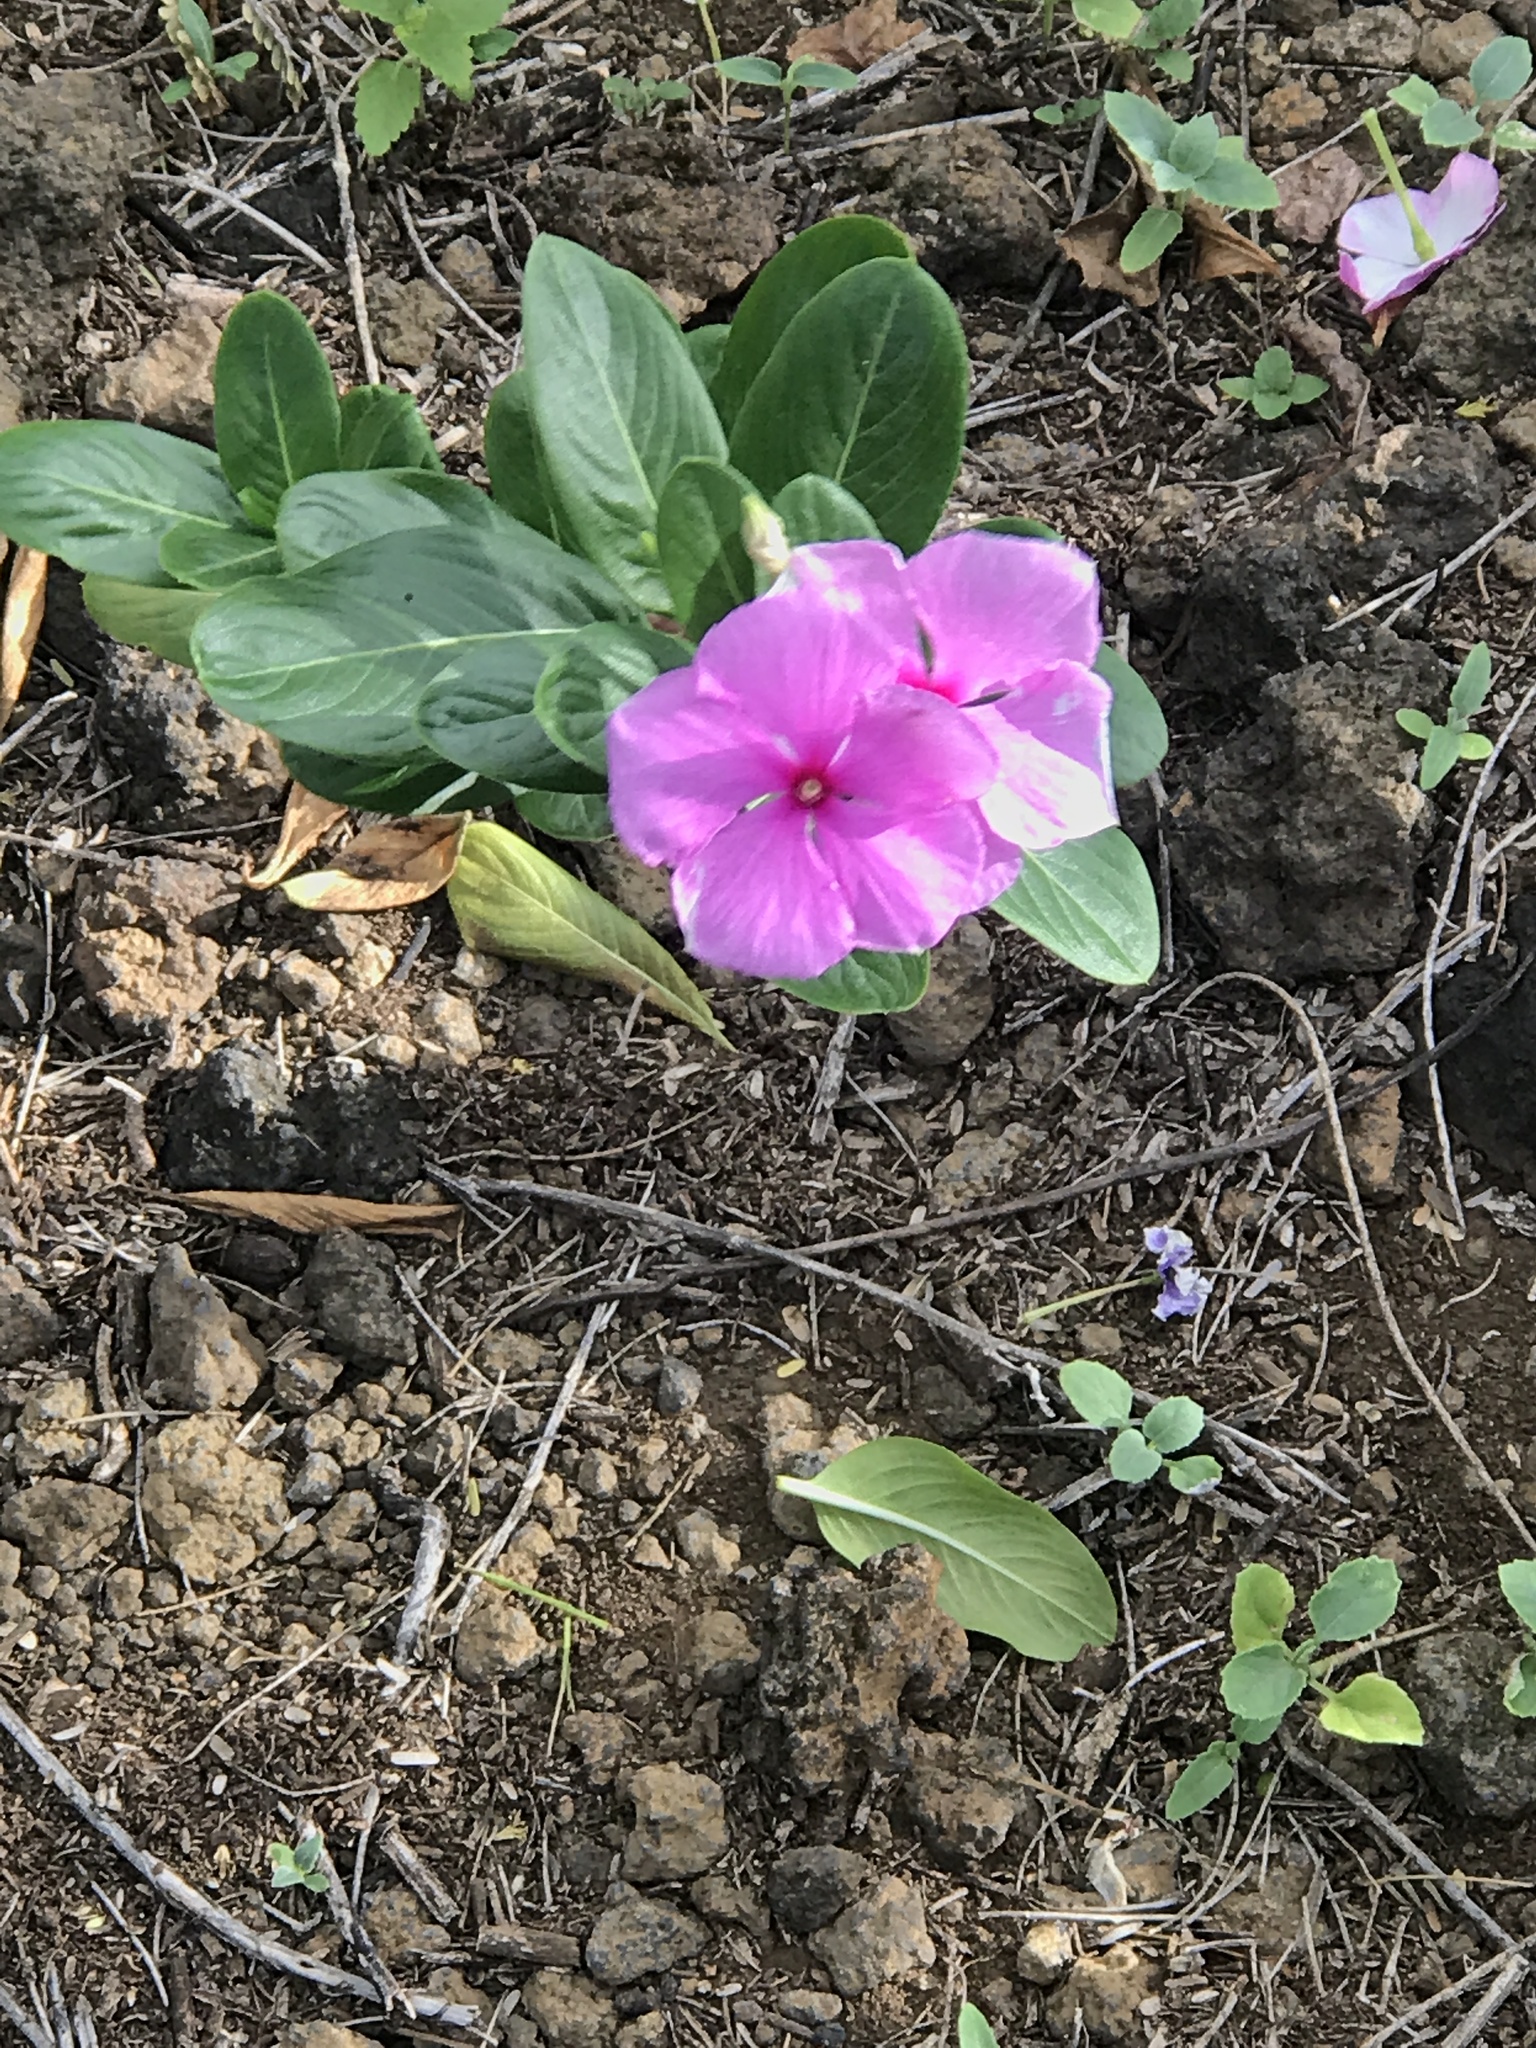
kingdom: Plantae
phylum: Tracheophyta
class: Magnoliopsida
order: Gentianales
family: Apocynaceae
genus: Catharanthus
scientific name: Catharanthus roseus
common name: Madagascar periwinkle
